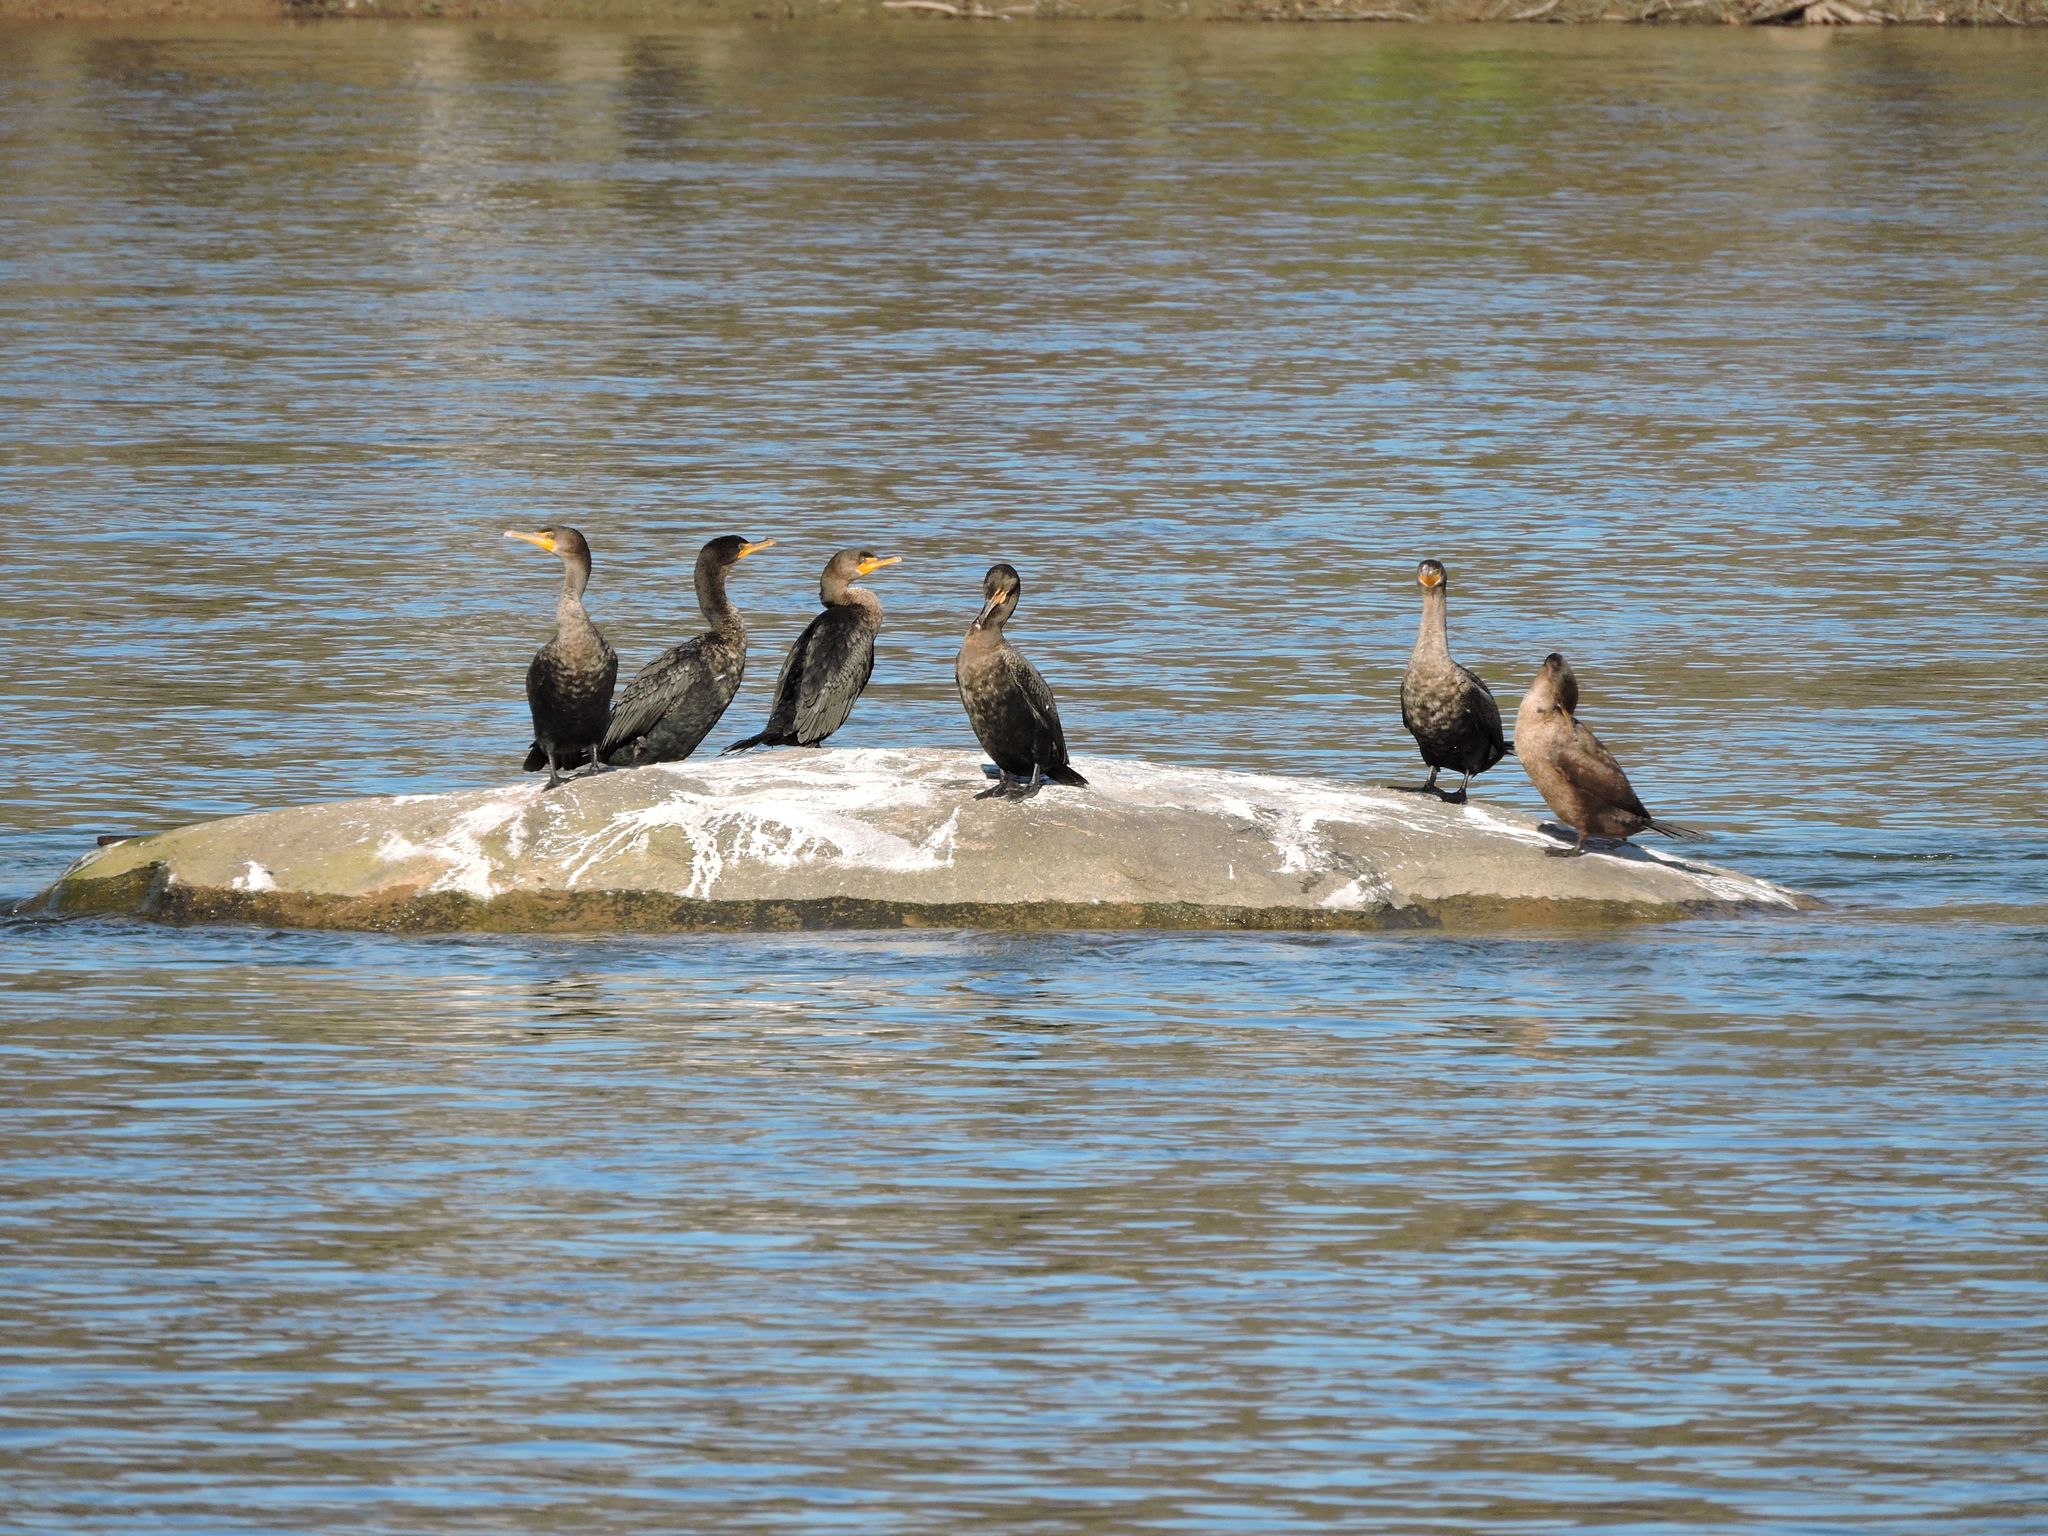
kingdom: Animalia
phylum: Chordata
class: Aves
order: Suliformes
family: Phalacrocoracidae
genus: Phalacrocorax
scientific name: Phalacrocorax auritus
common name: Double-crested cormorant
